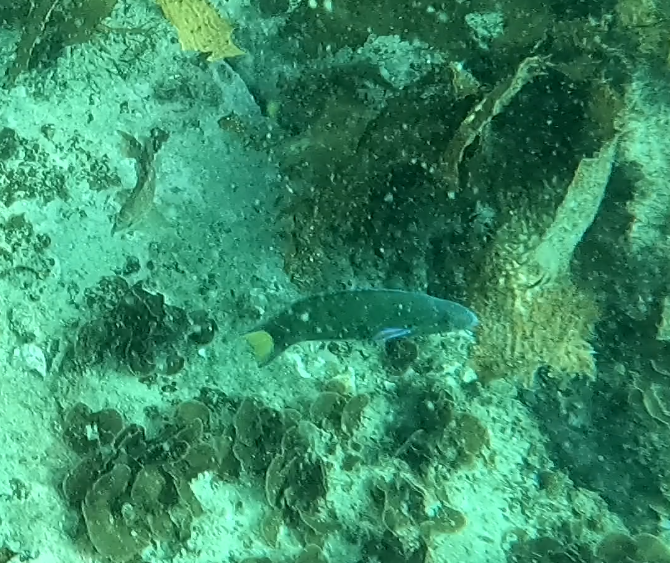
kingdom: Animalia
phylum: Chordata
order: Perciformes
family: Labridae
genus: Thalassoma
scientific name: Thalassoma lunare
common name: Blue wrasse
